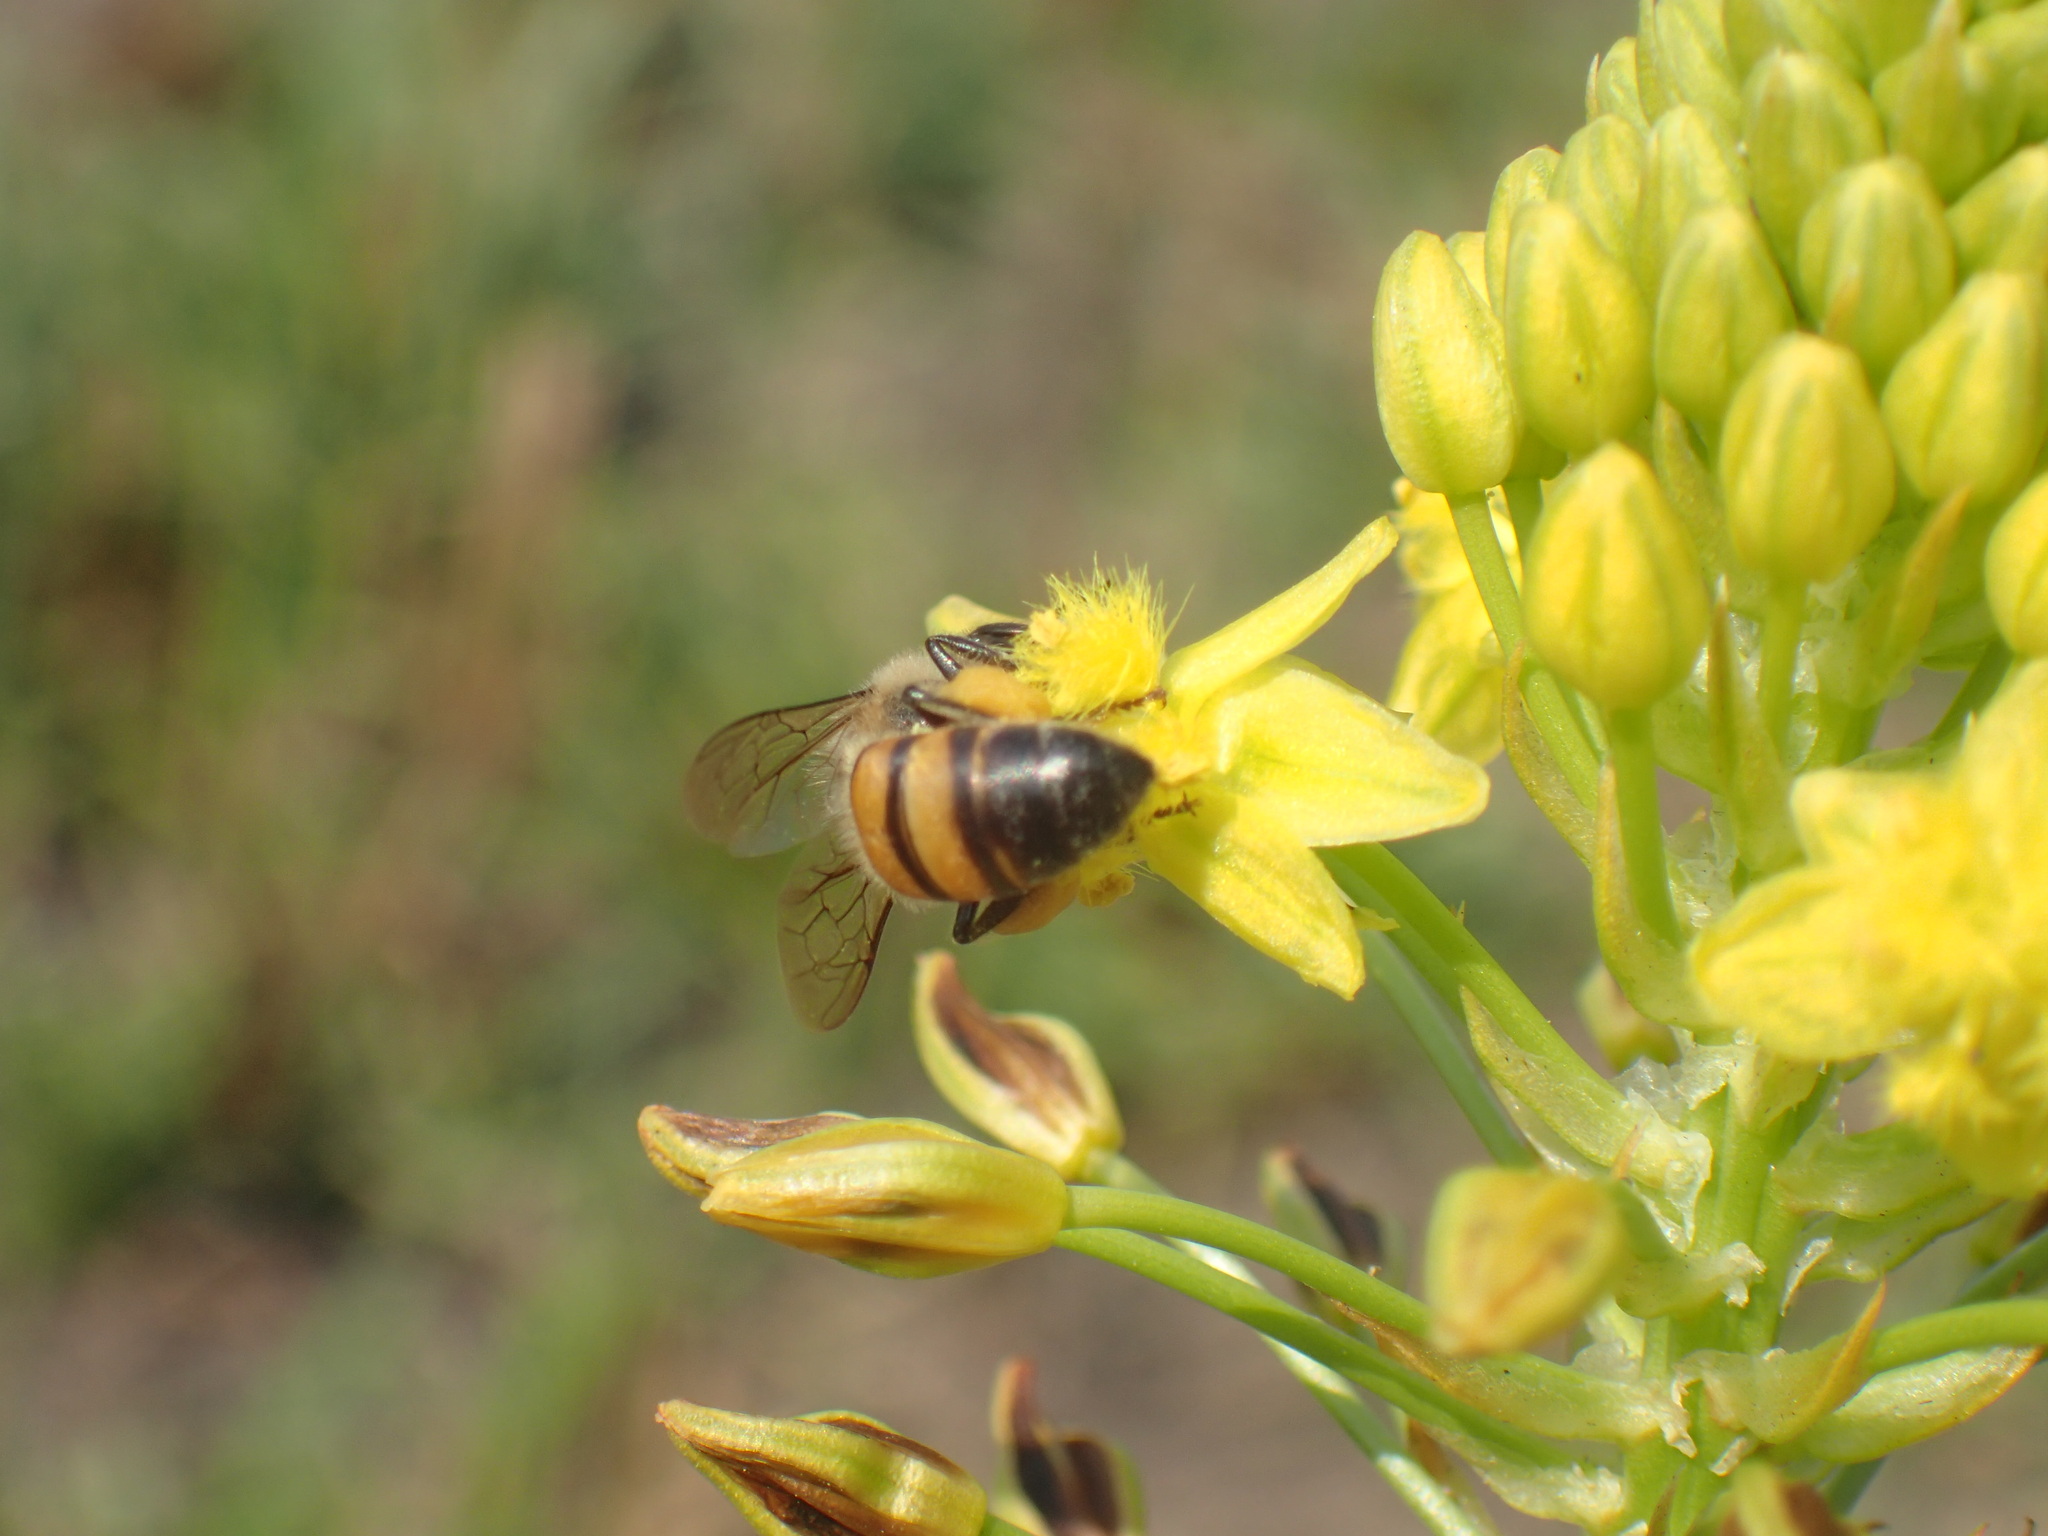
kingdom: Animalia
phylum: Arthropoda
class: Insecta
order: Hymenoptera
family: Apidae
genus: Apis
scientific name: Apis mellifera
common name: Honey bee
